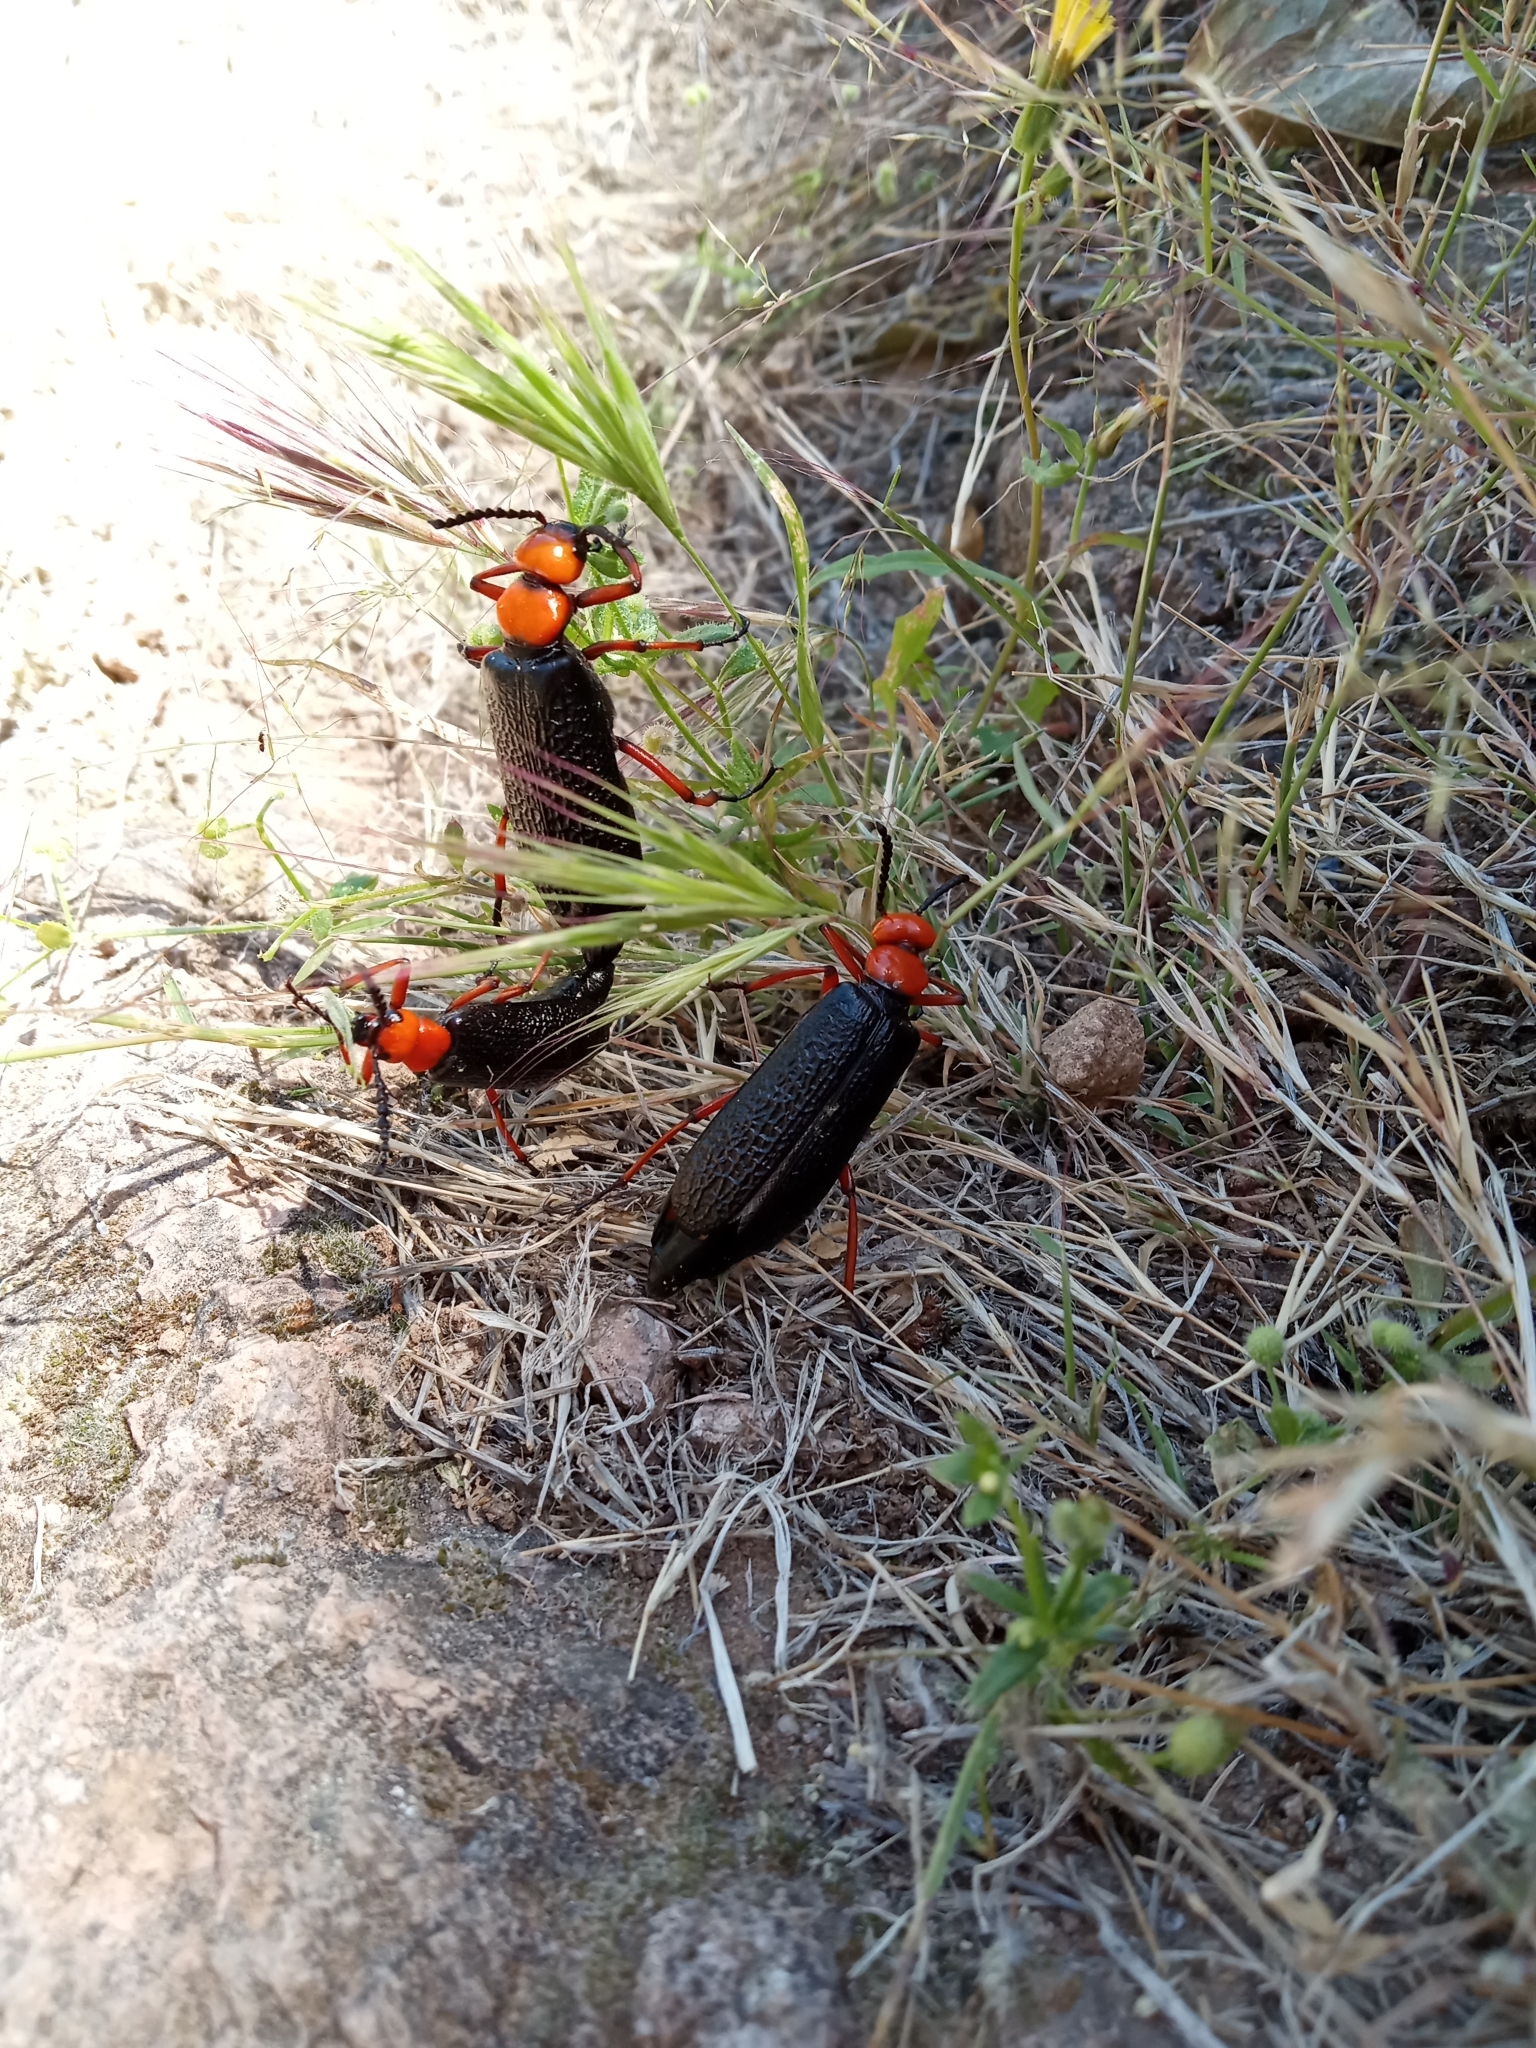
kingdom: Animalia
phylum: Arthropoda
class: Insecta
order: Coleoptera
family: Meloidae
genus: Lytta
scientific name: Lytta magister
